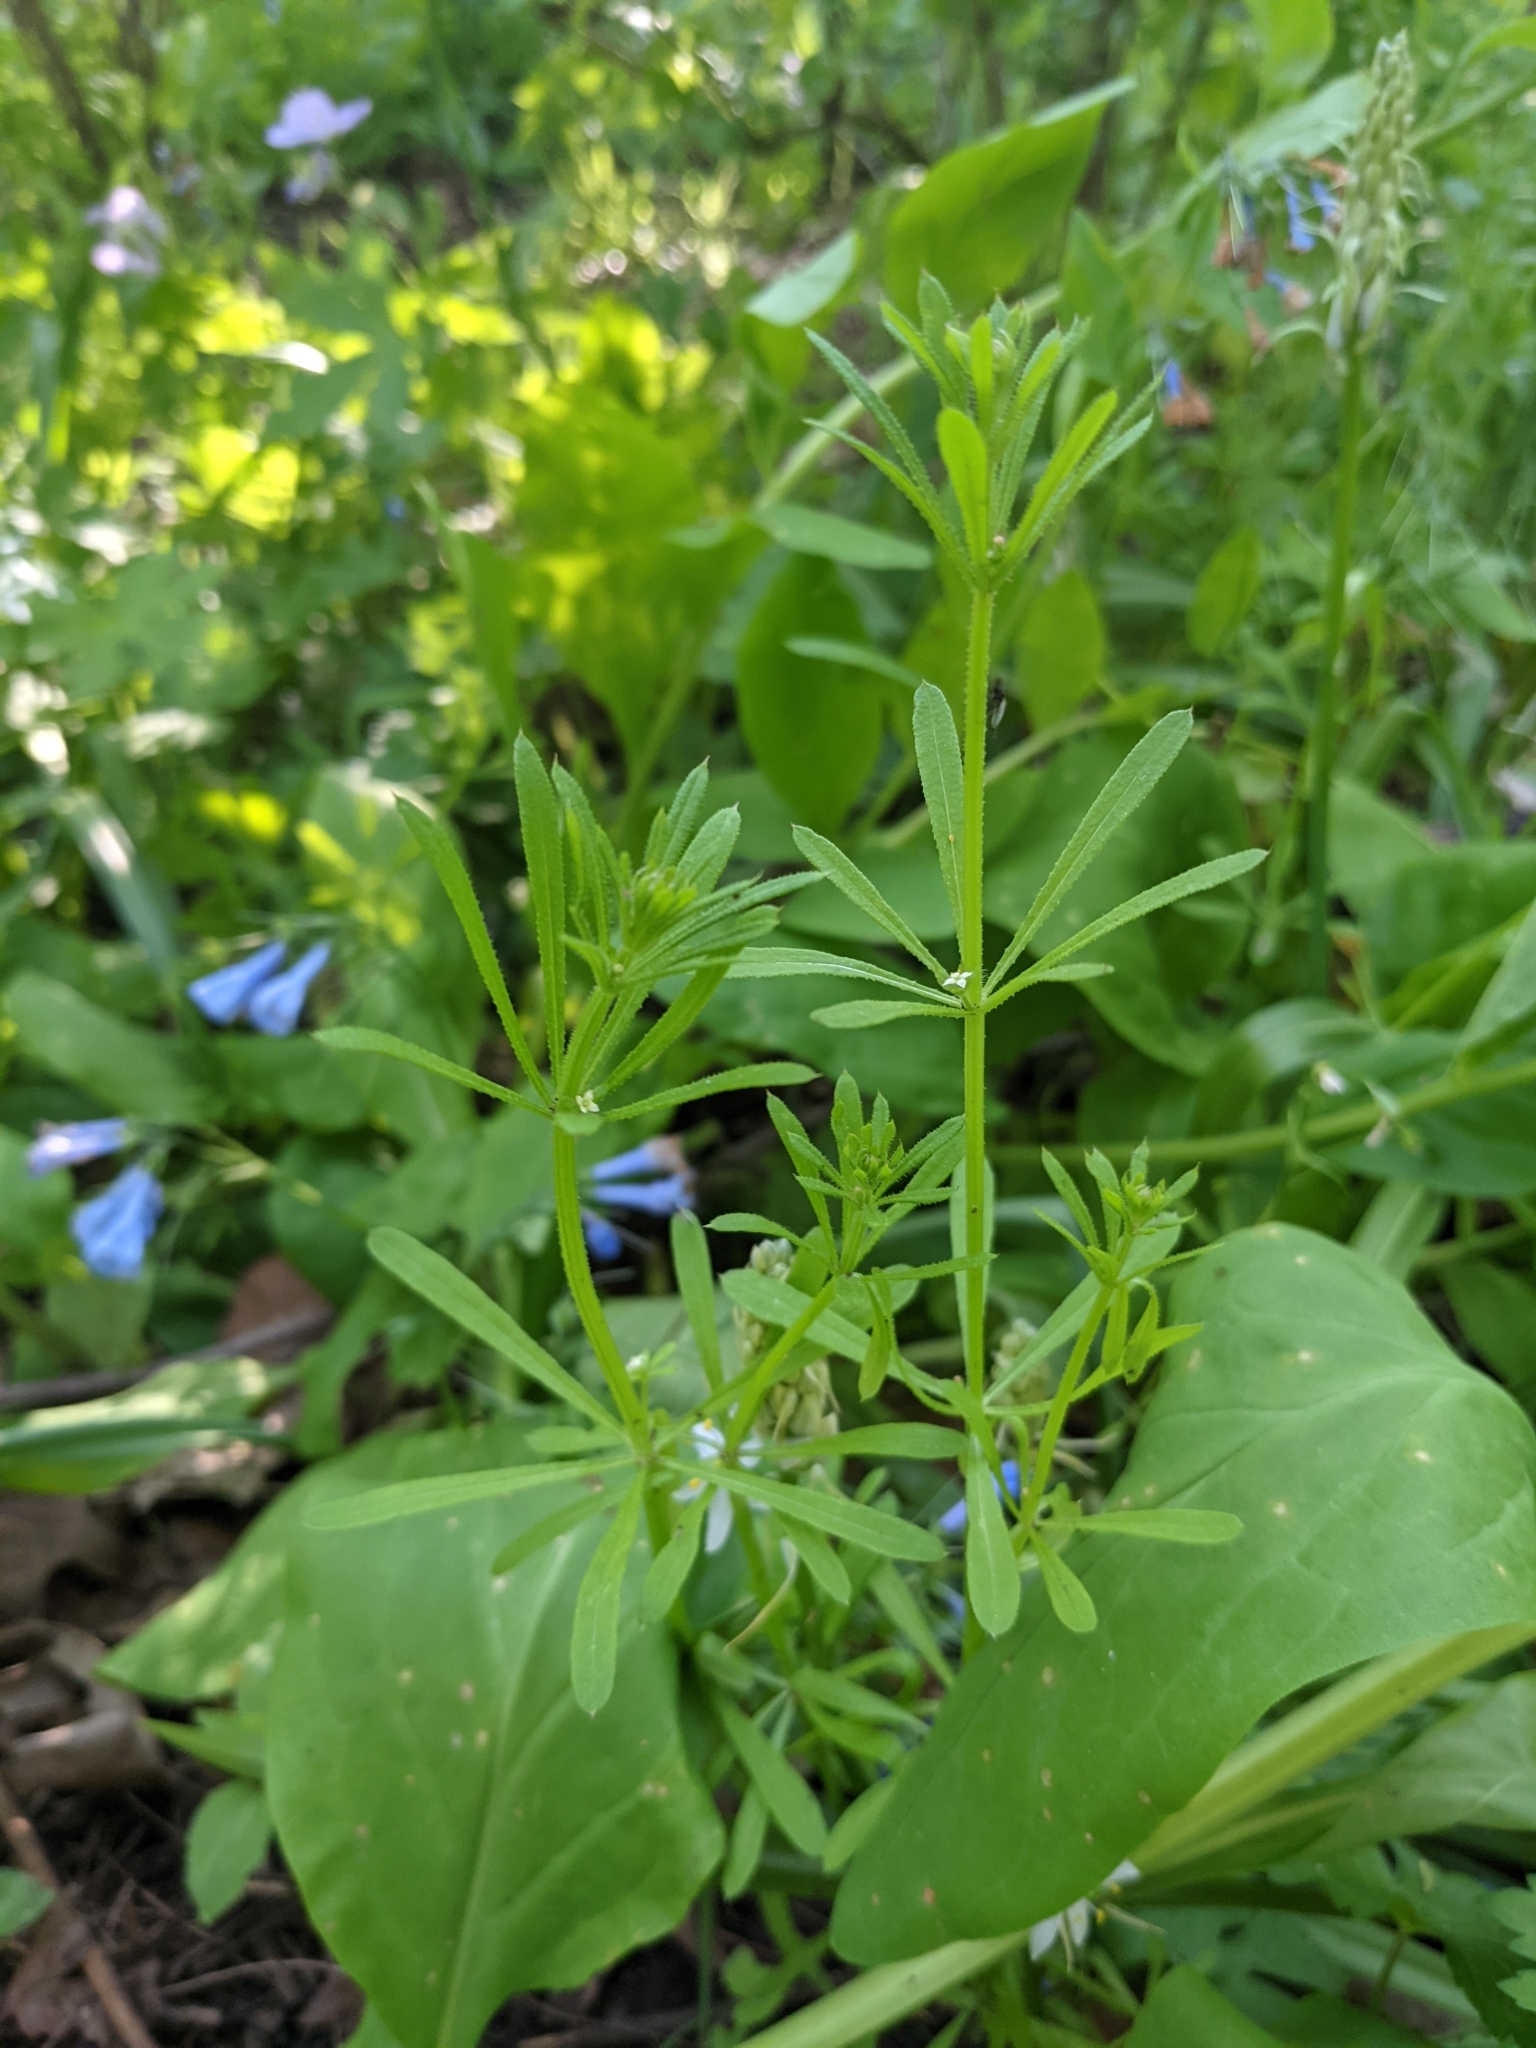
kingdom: Plantae
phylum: Tracheophyta
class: Magnoliopsida
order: Gentianales
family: Rubiaceae
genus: Galium
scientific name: Galium aparine
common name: Cleavers
